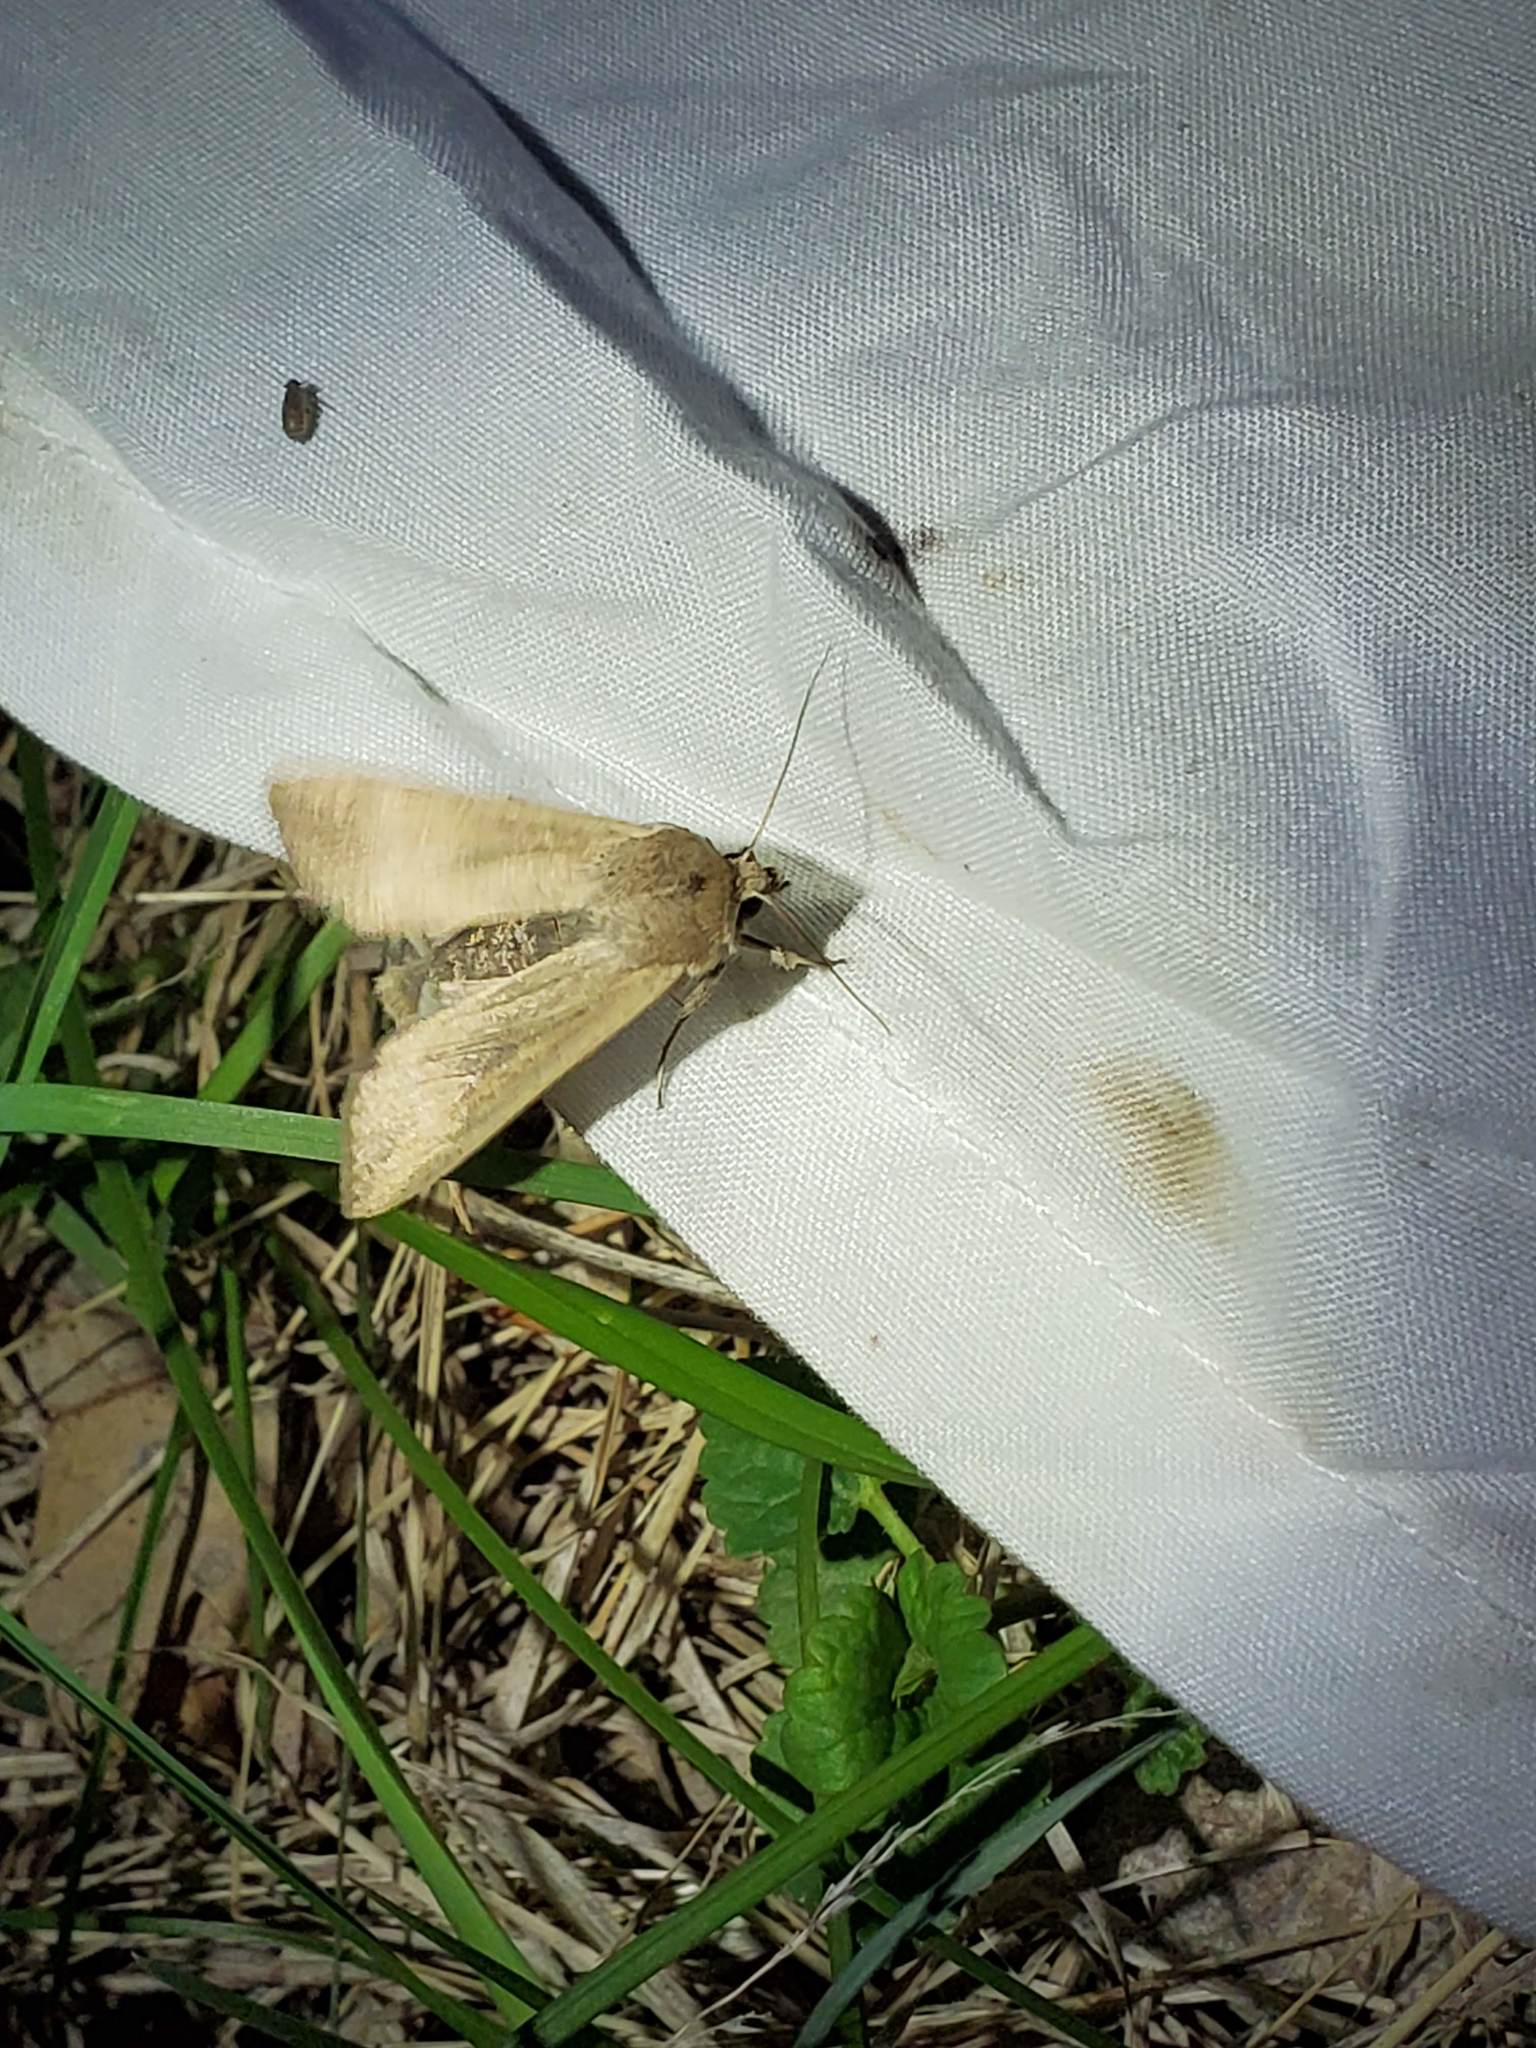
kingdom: Animalia
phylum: Arthropoda
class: Insecta
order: Lepidoptera
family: Noctuidae
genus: Mythimna
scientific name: Mythimna unipuncta
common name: White-speck
